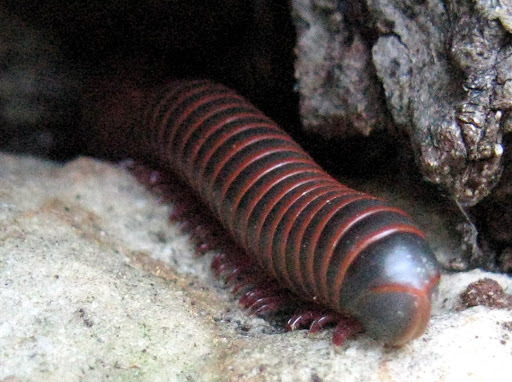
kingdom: Animalia
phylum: Arthropoda
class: Diplopoda
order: Spirobolida
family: Spirobolidae
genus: Narceus
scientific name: Narceus
